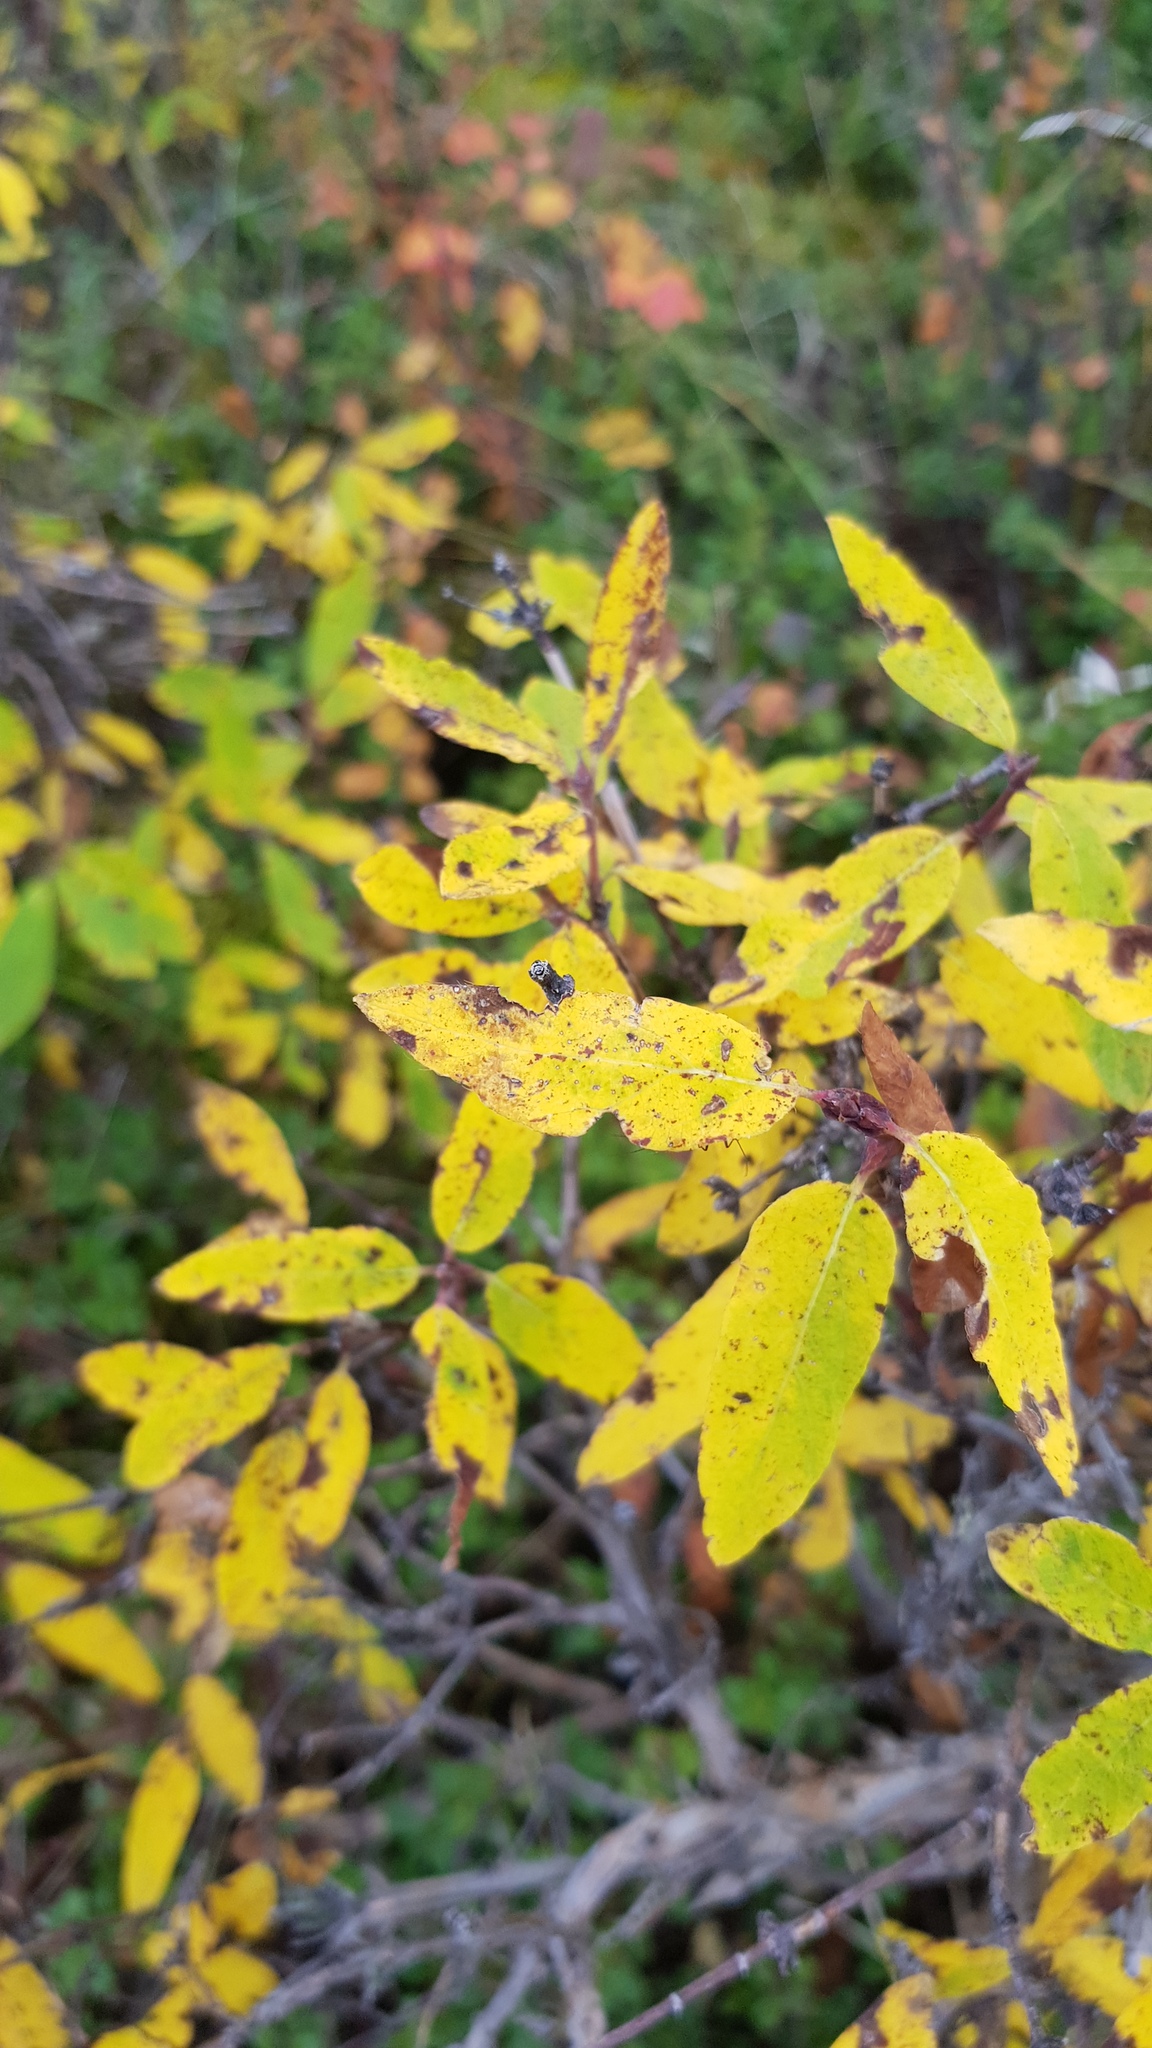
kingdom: Plantae
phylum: Tracheophyta
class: Magnoliopsida
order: Dipsacales
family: Caprifoliaceae
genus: Lonicera
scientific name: Lonicera caerulea
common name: Blue honeysuckle
